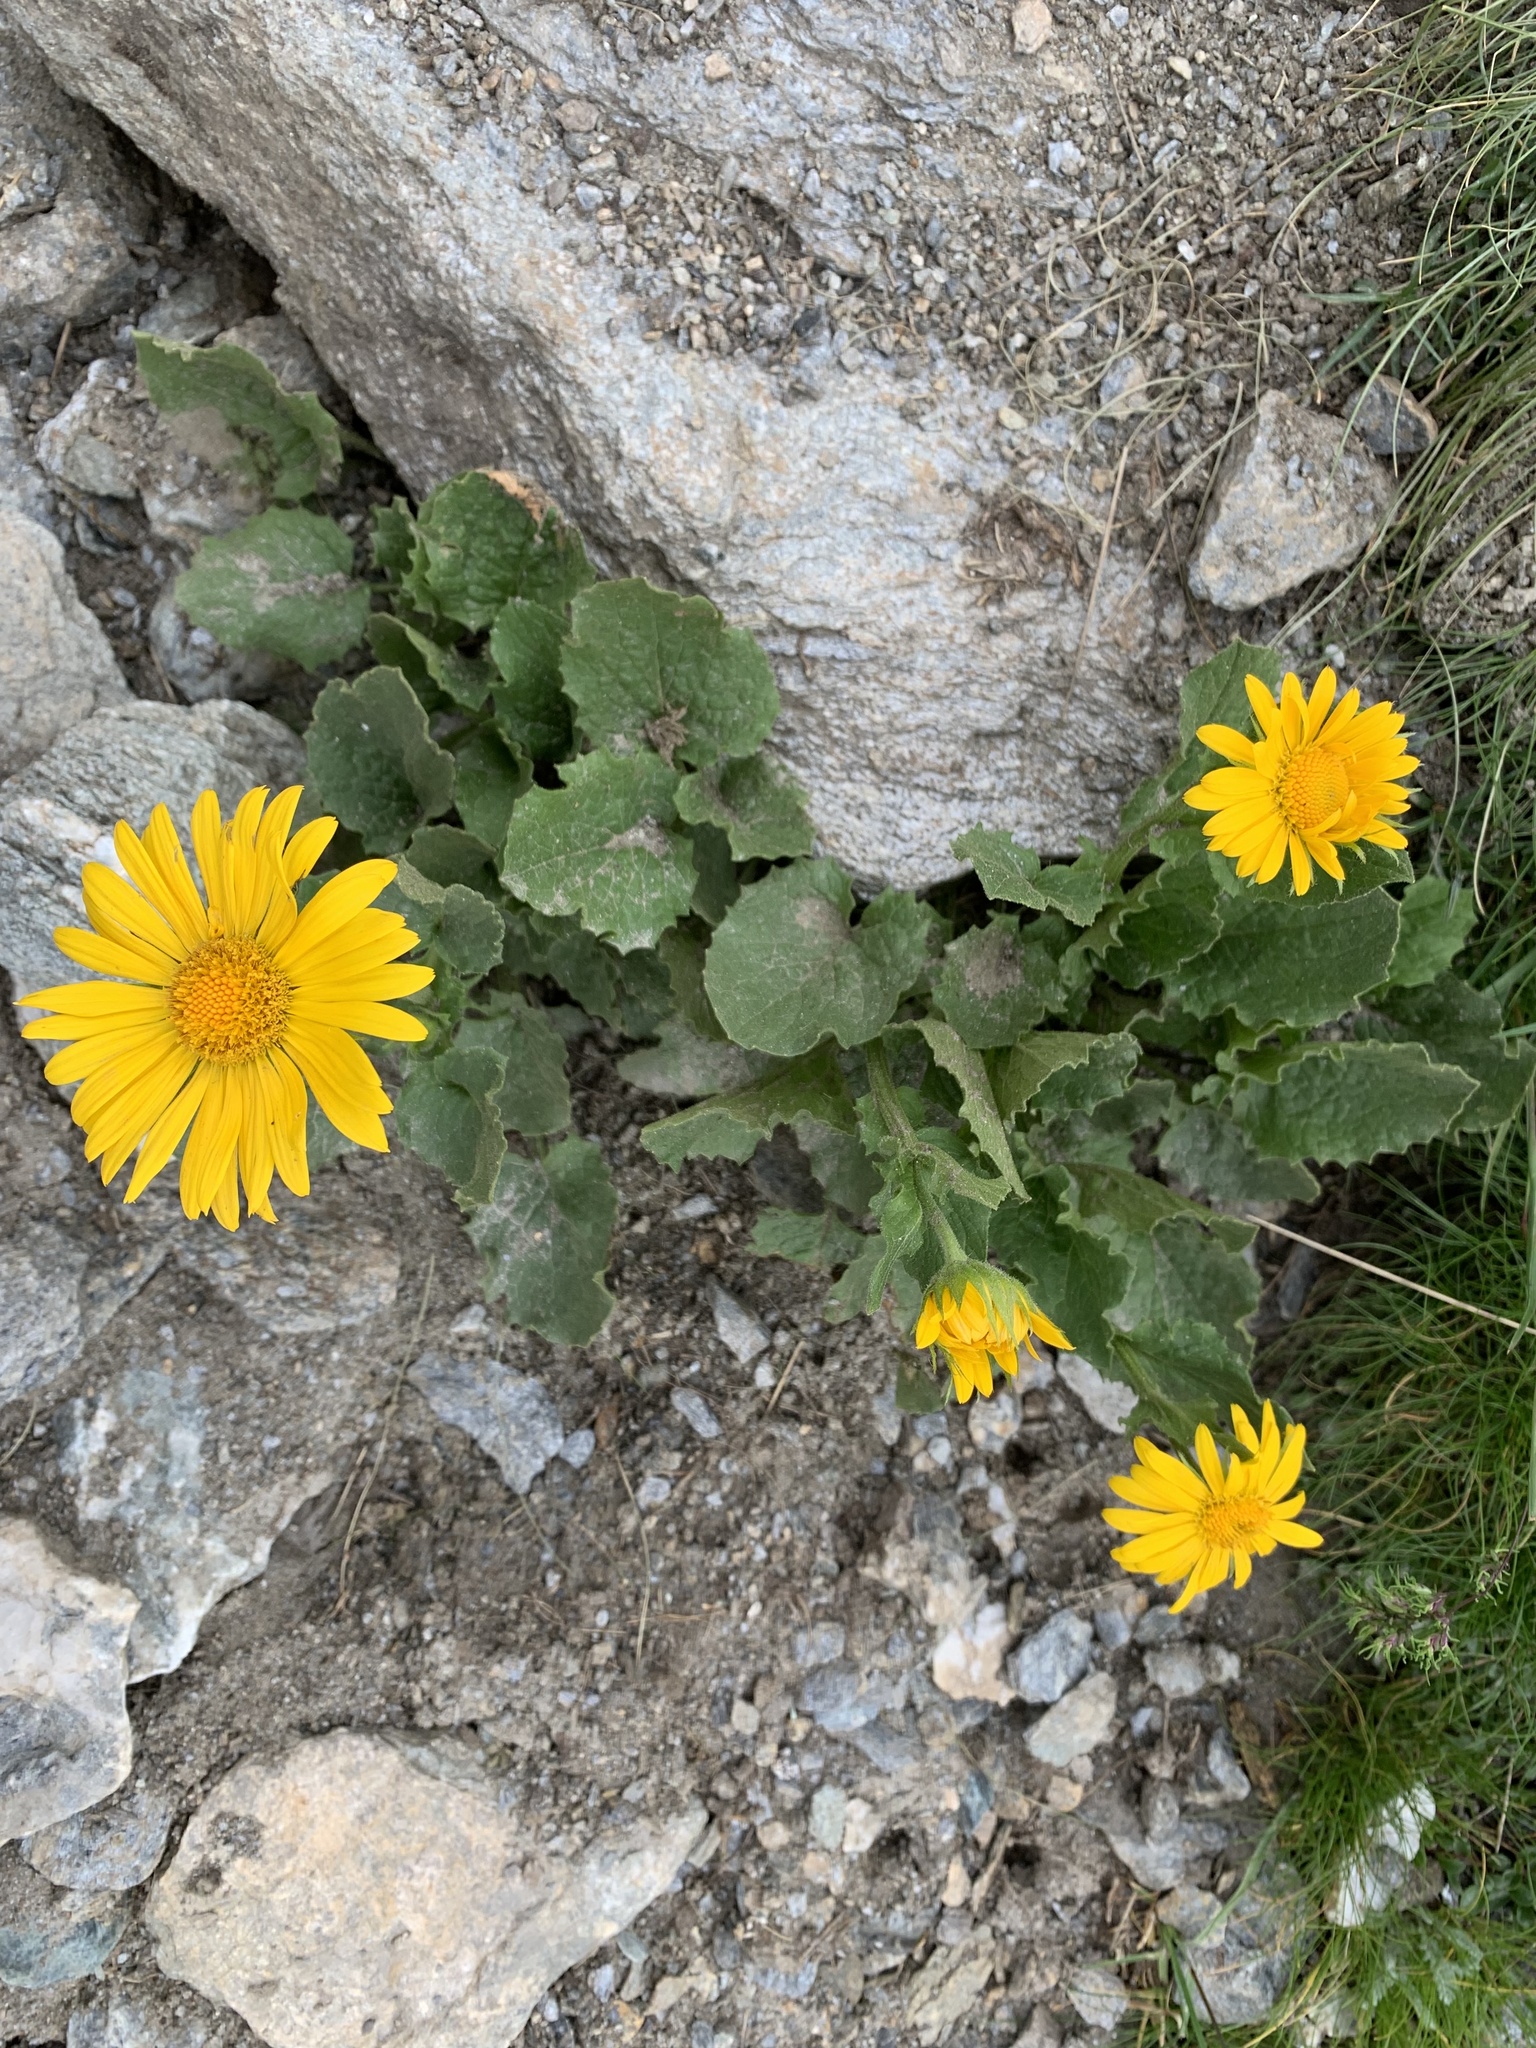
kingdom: Plantae
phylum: Tracheophyta
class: Magnoliopsida
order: Asterales
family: Asteraceae
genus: Doronicum
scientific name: Doronicum grandiflorum
